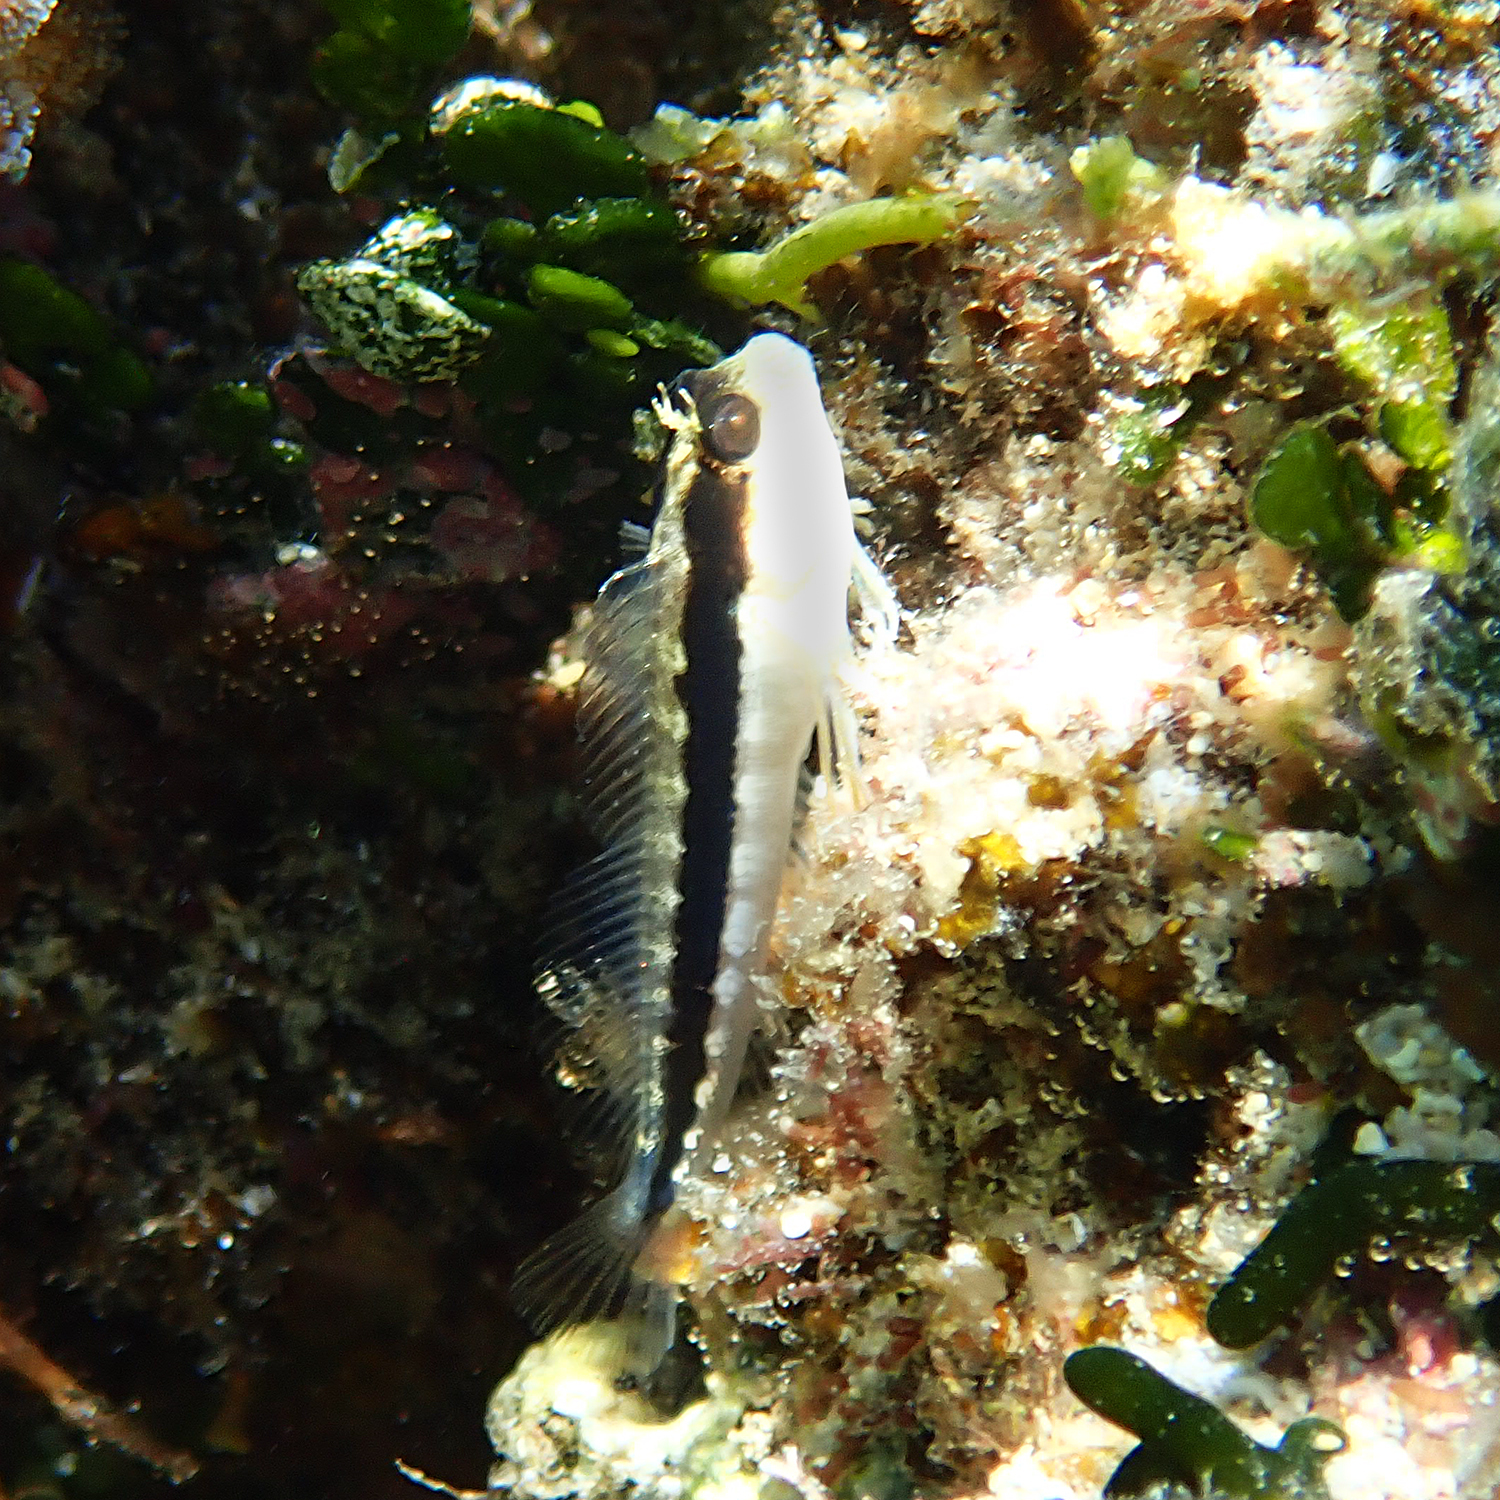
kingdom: Animalia
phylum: Chordata
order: Perciformes
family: Blenniidae
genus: Parablennius
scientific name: Parablennius serratolineatus
